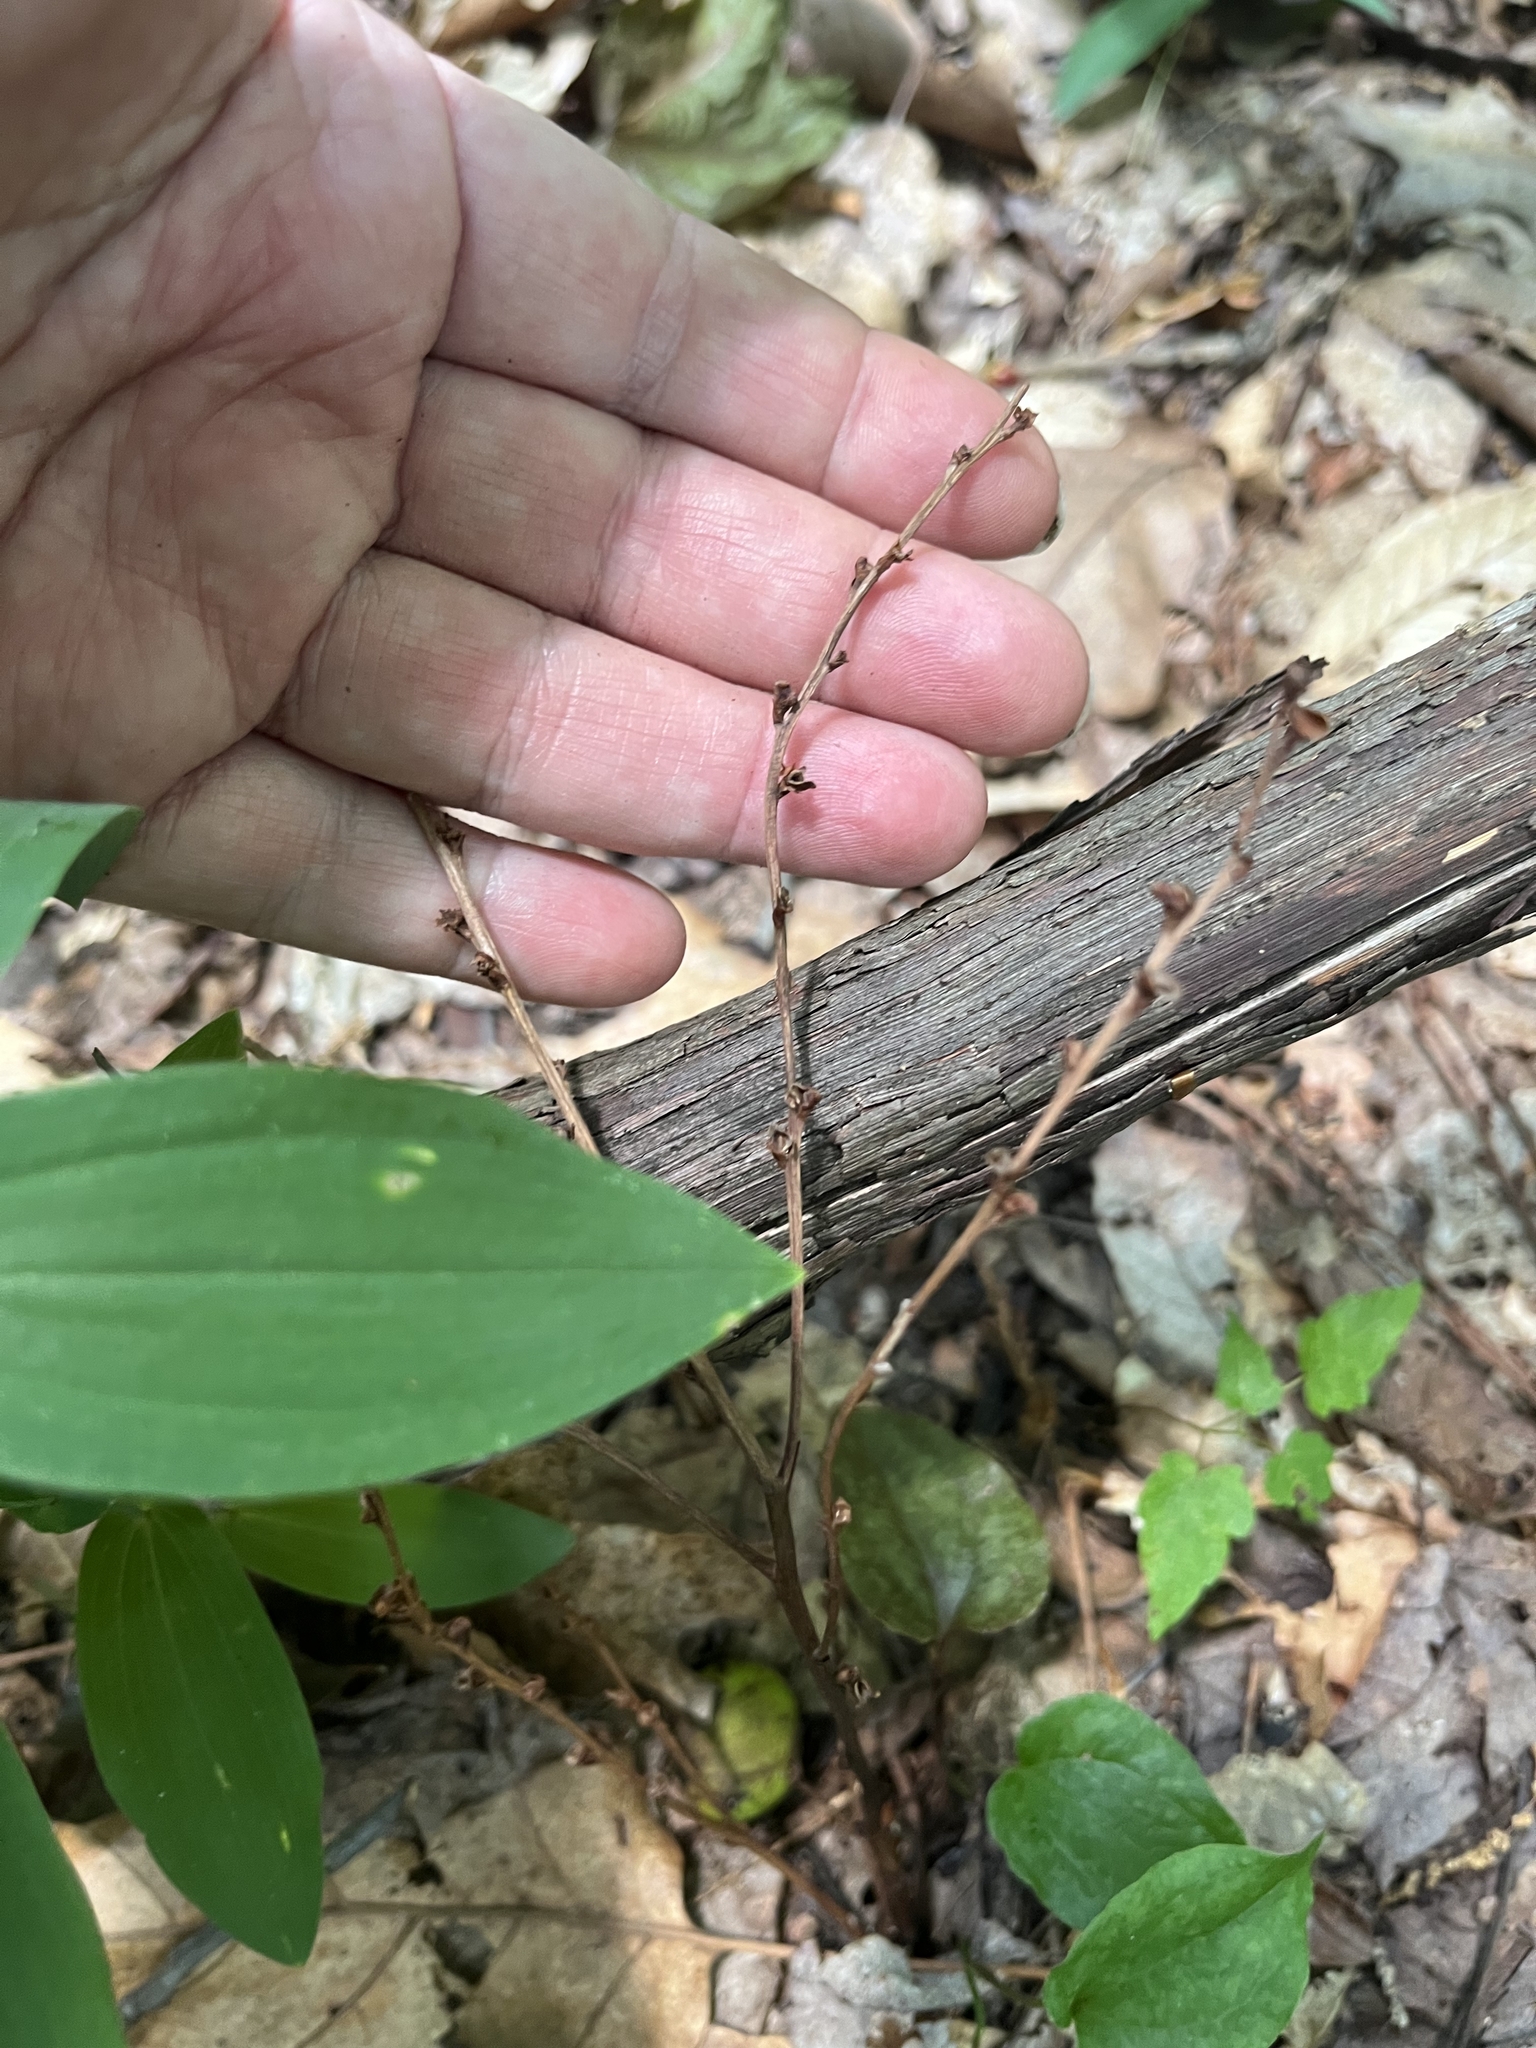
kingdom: Plantae
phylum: Tracheophyta
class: Magnoliopsida
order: Lamiales
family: Orobanchaceae
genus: Epifagus
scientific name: Epifagus virginiana
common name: Beechdrops
